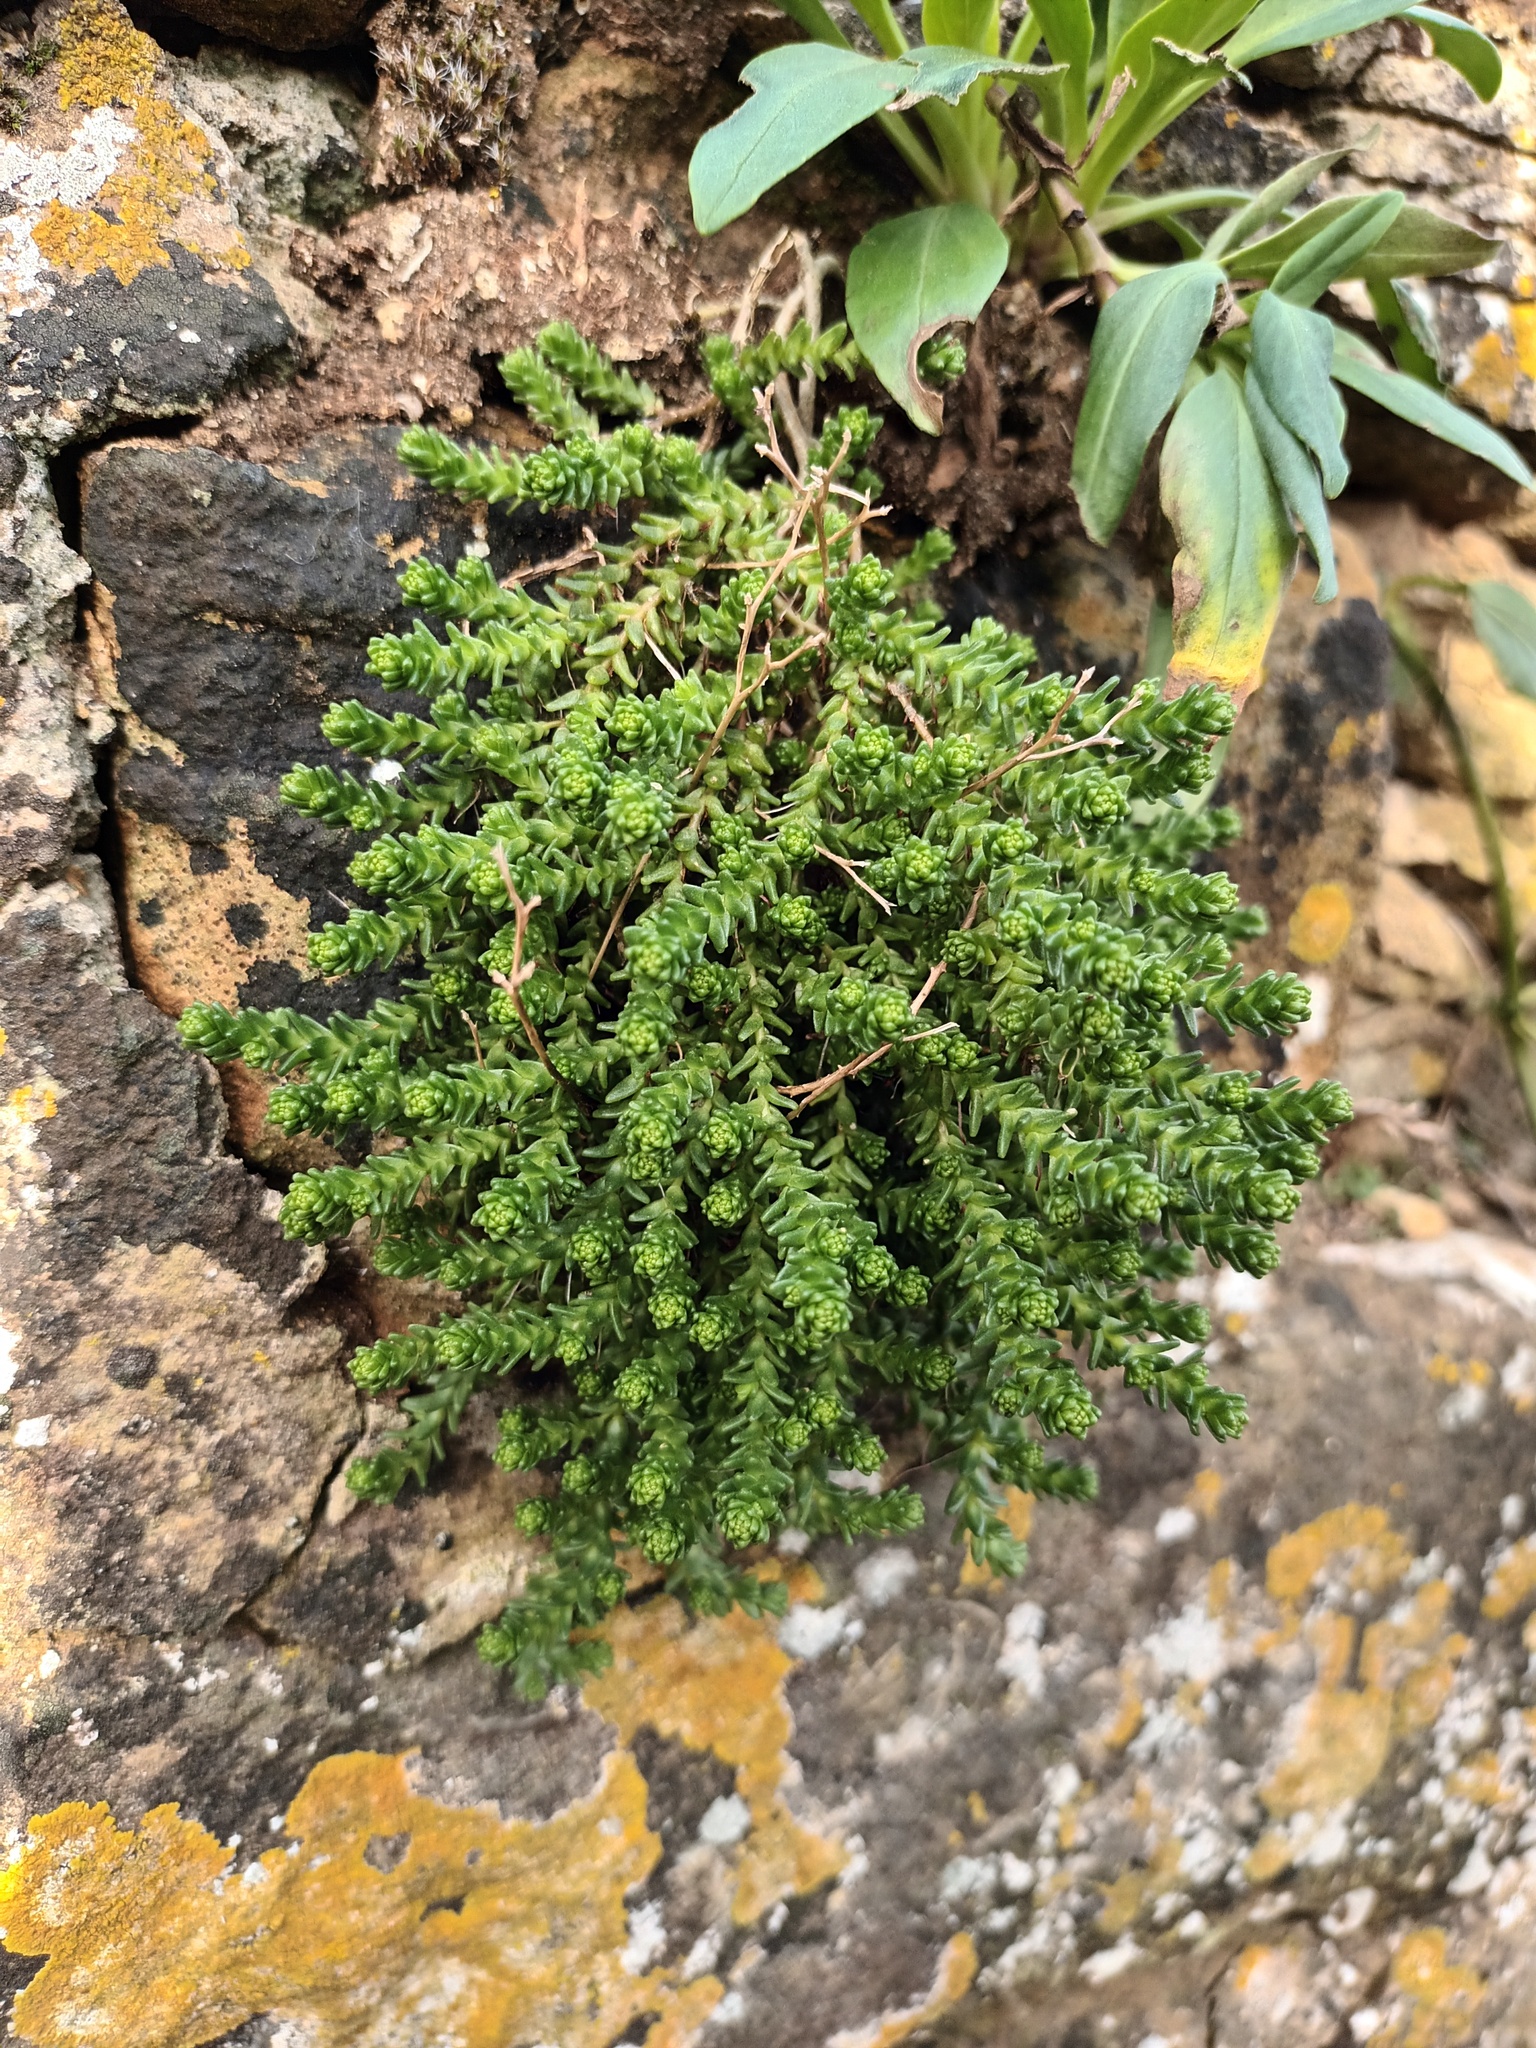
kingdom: Plantae
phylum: Tracheophyta
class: Magnoliopsida
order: Saxifragales
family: Crassulaceae
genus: Sedum
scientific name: Sedum acre
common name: Biting stonecrop
